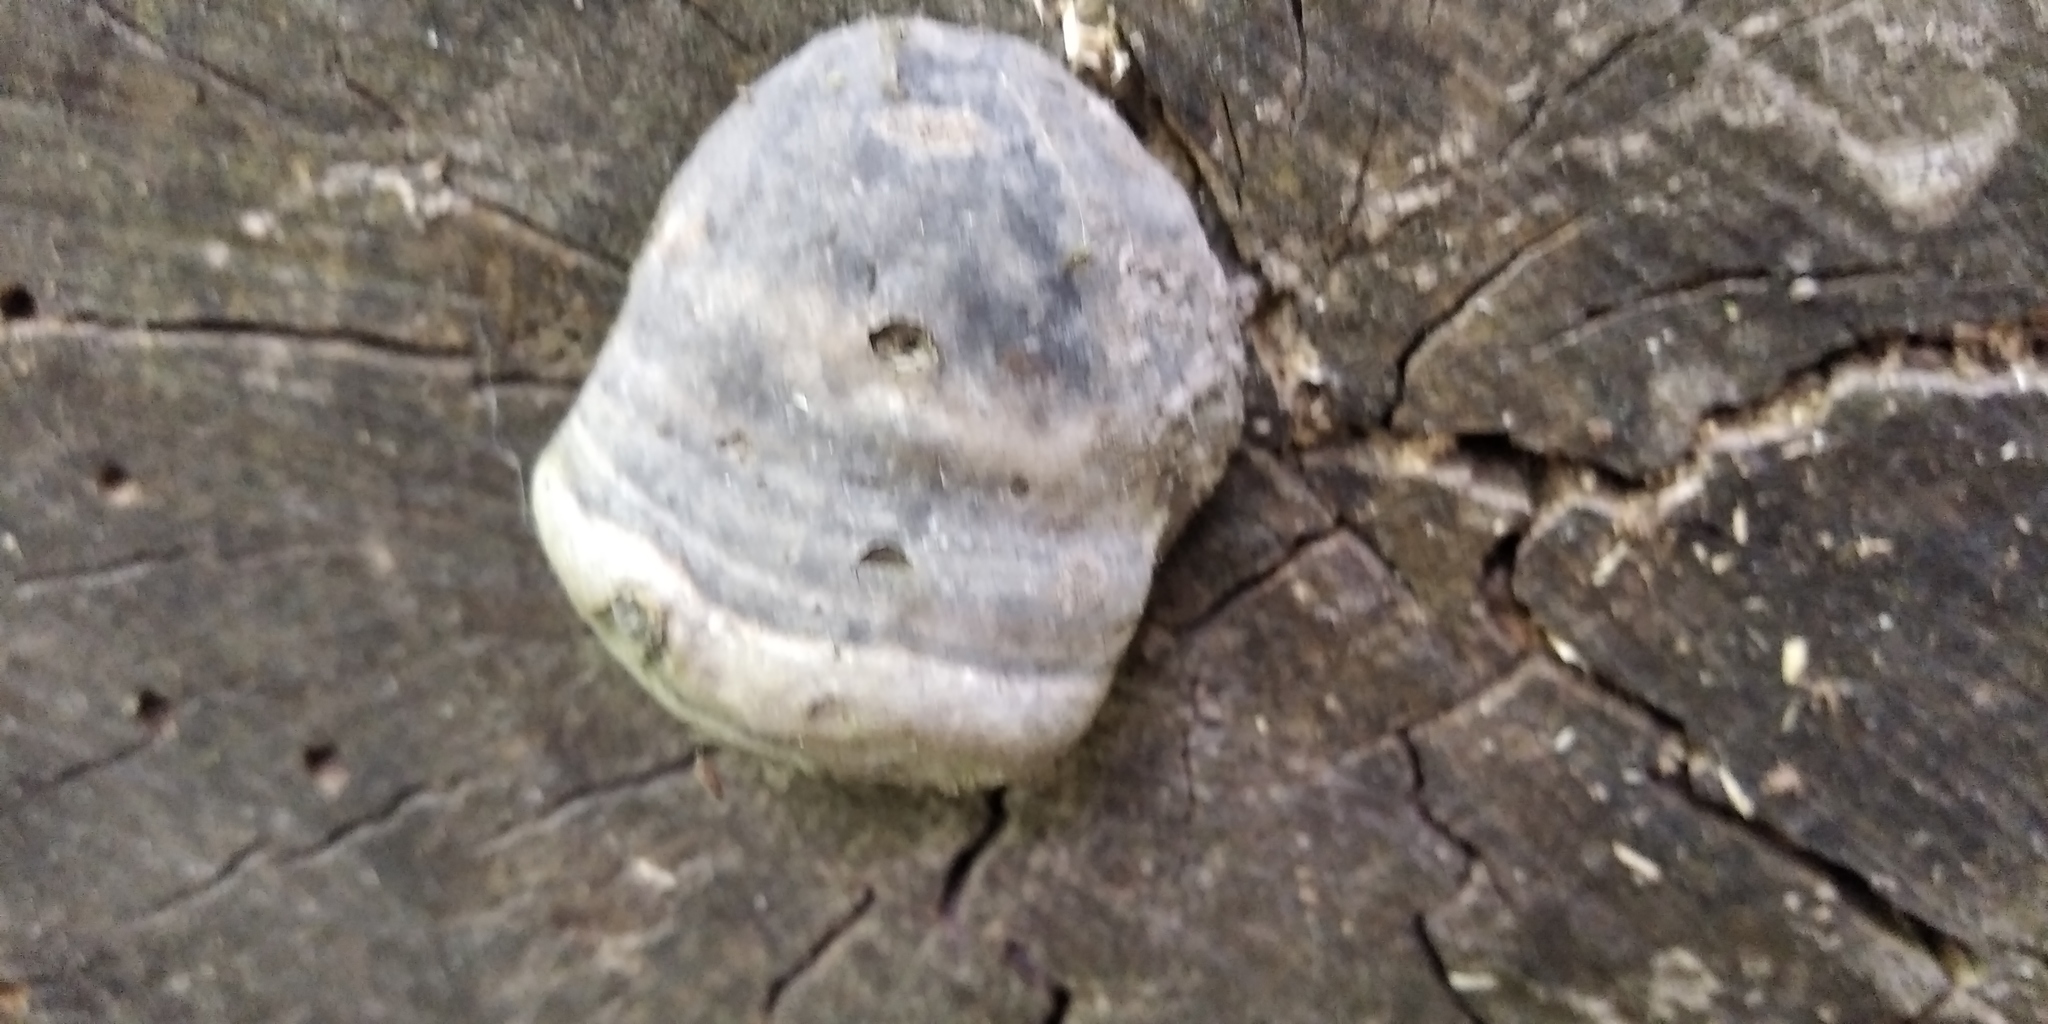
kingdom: Fungi
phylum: Basidiomycota
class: Agaricomycetes
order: Polyporales
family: Polyporaceae
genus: Fomes
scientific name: Fomes fomentarius
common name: Hoof fungus
